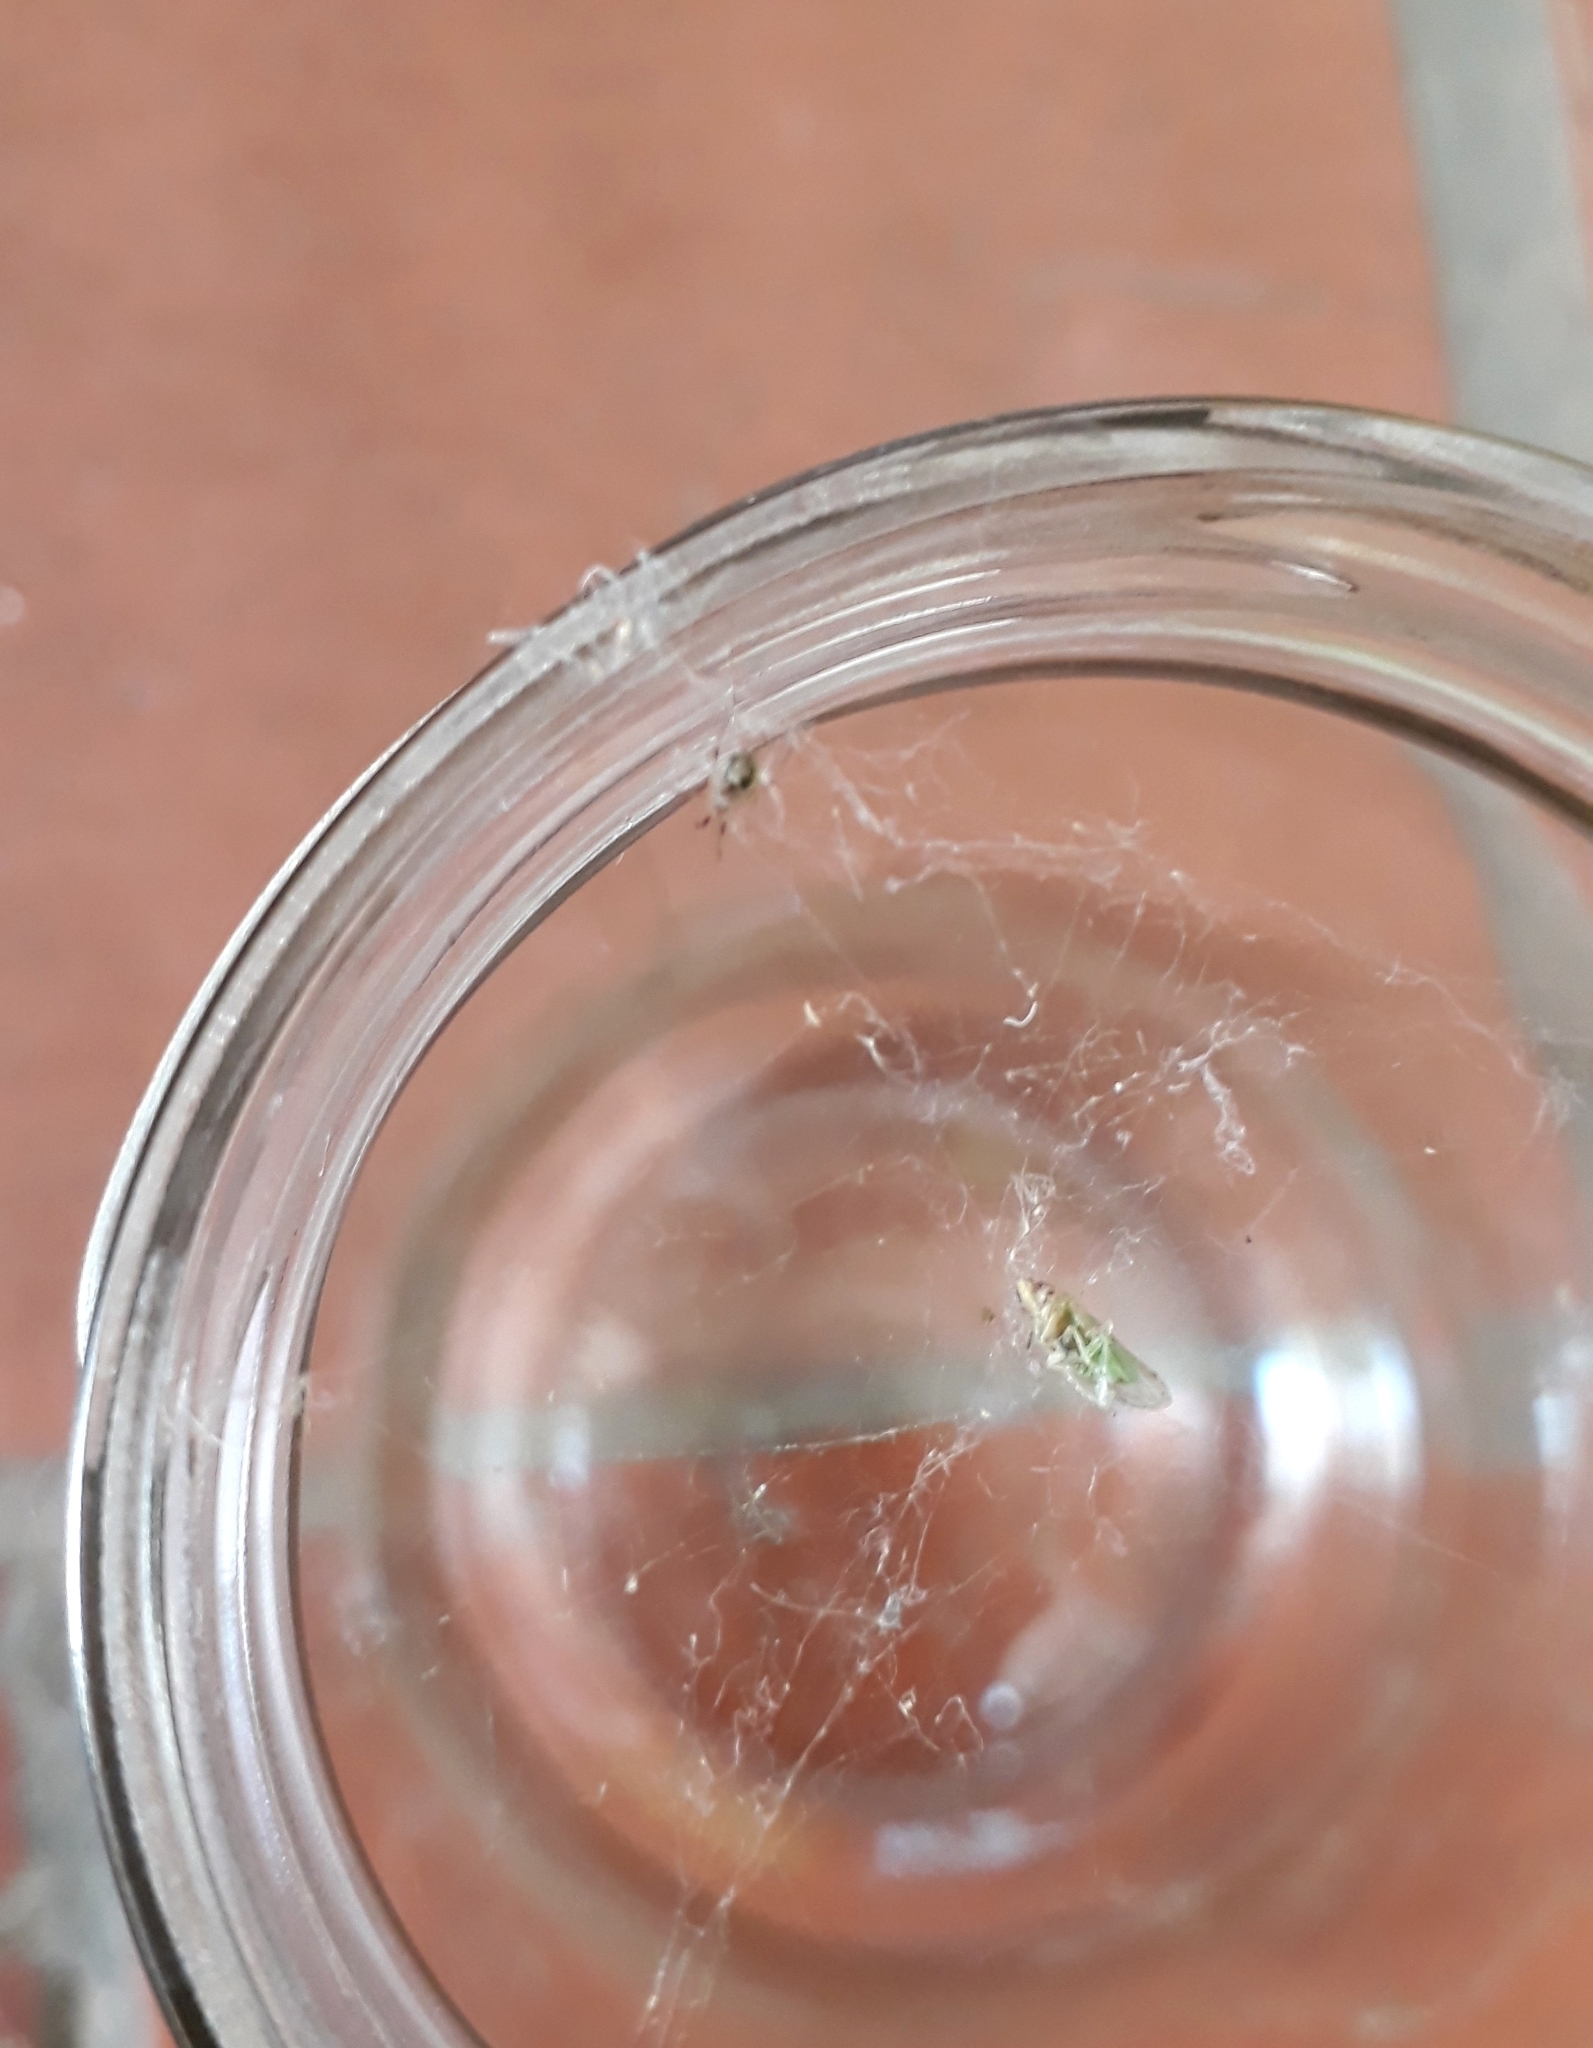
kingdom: Animalia
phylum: Arthropoda
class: Arachnida
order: Araneae
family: Theridiidae
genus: Latrodectus
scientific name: Latrodectus geometricus
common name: Brown widow spider
